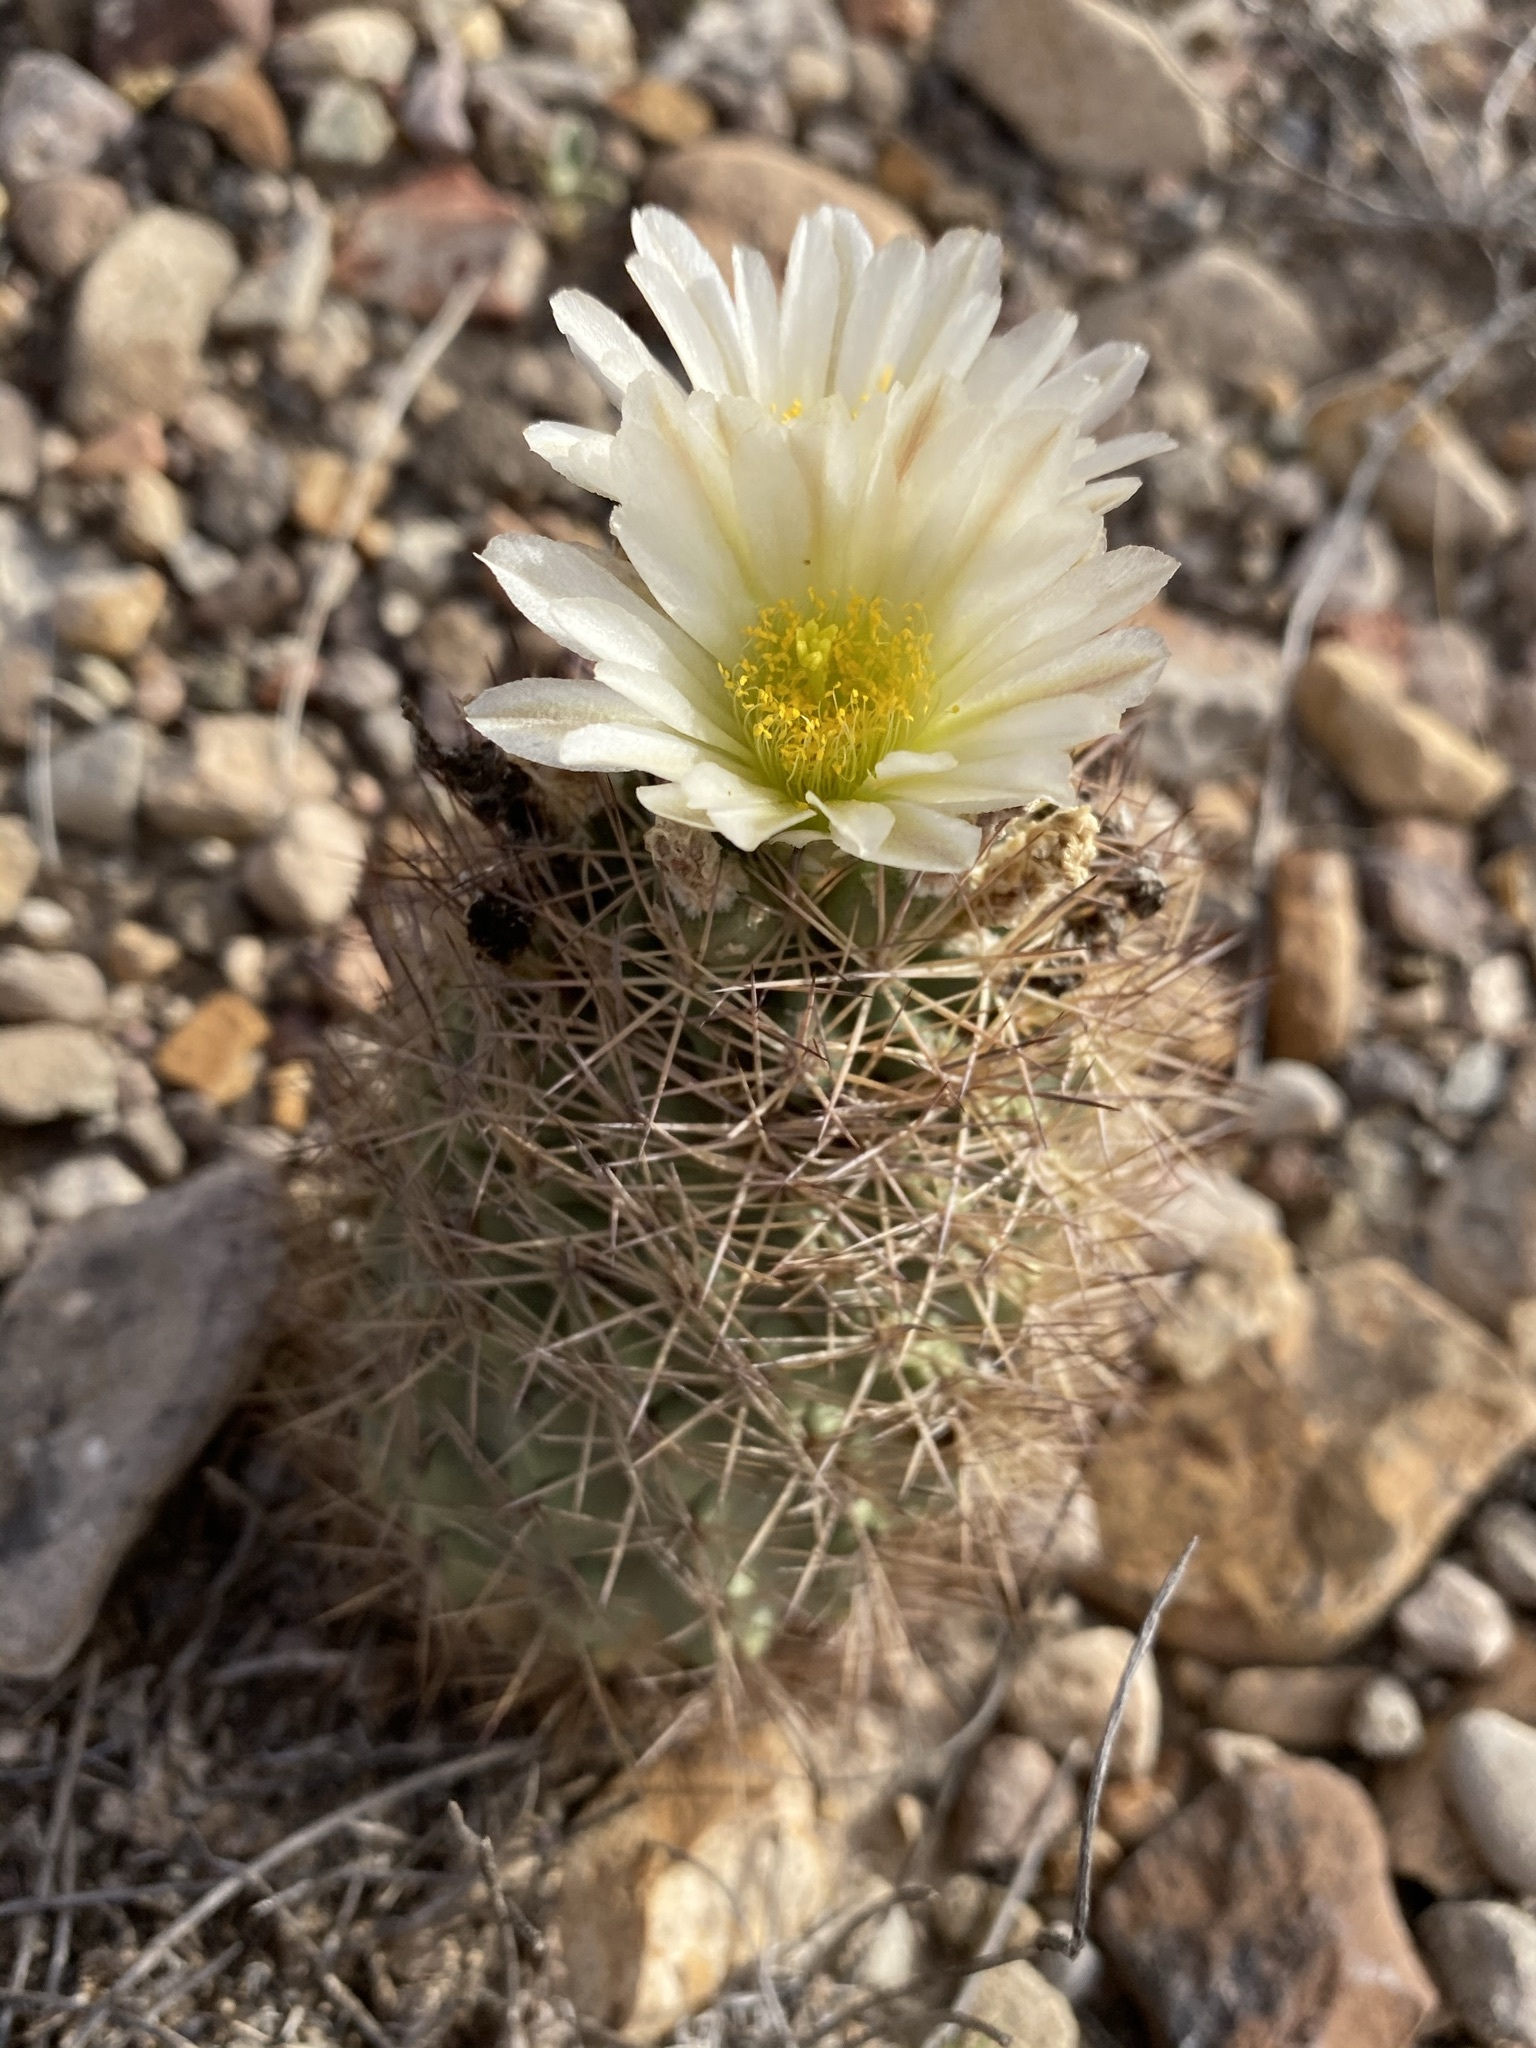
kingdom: Plantae
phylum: Tracheophyta
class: Magnoliopsida
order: Caryophyllales
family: Cactaceae
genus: Sclerocactus
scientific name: Sclerocactus warnockii
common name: Pineapple cactus
